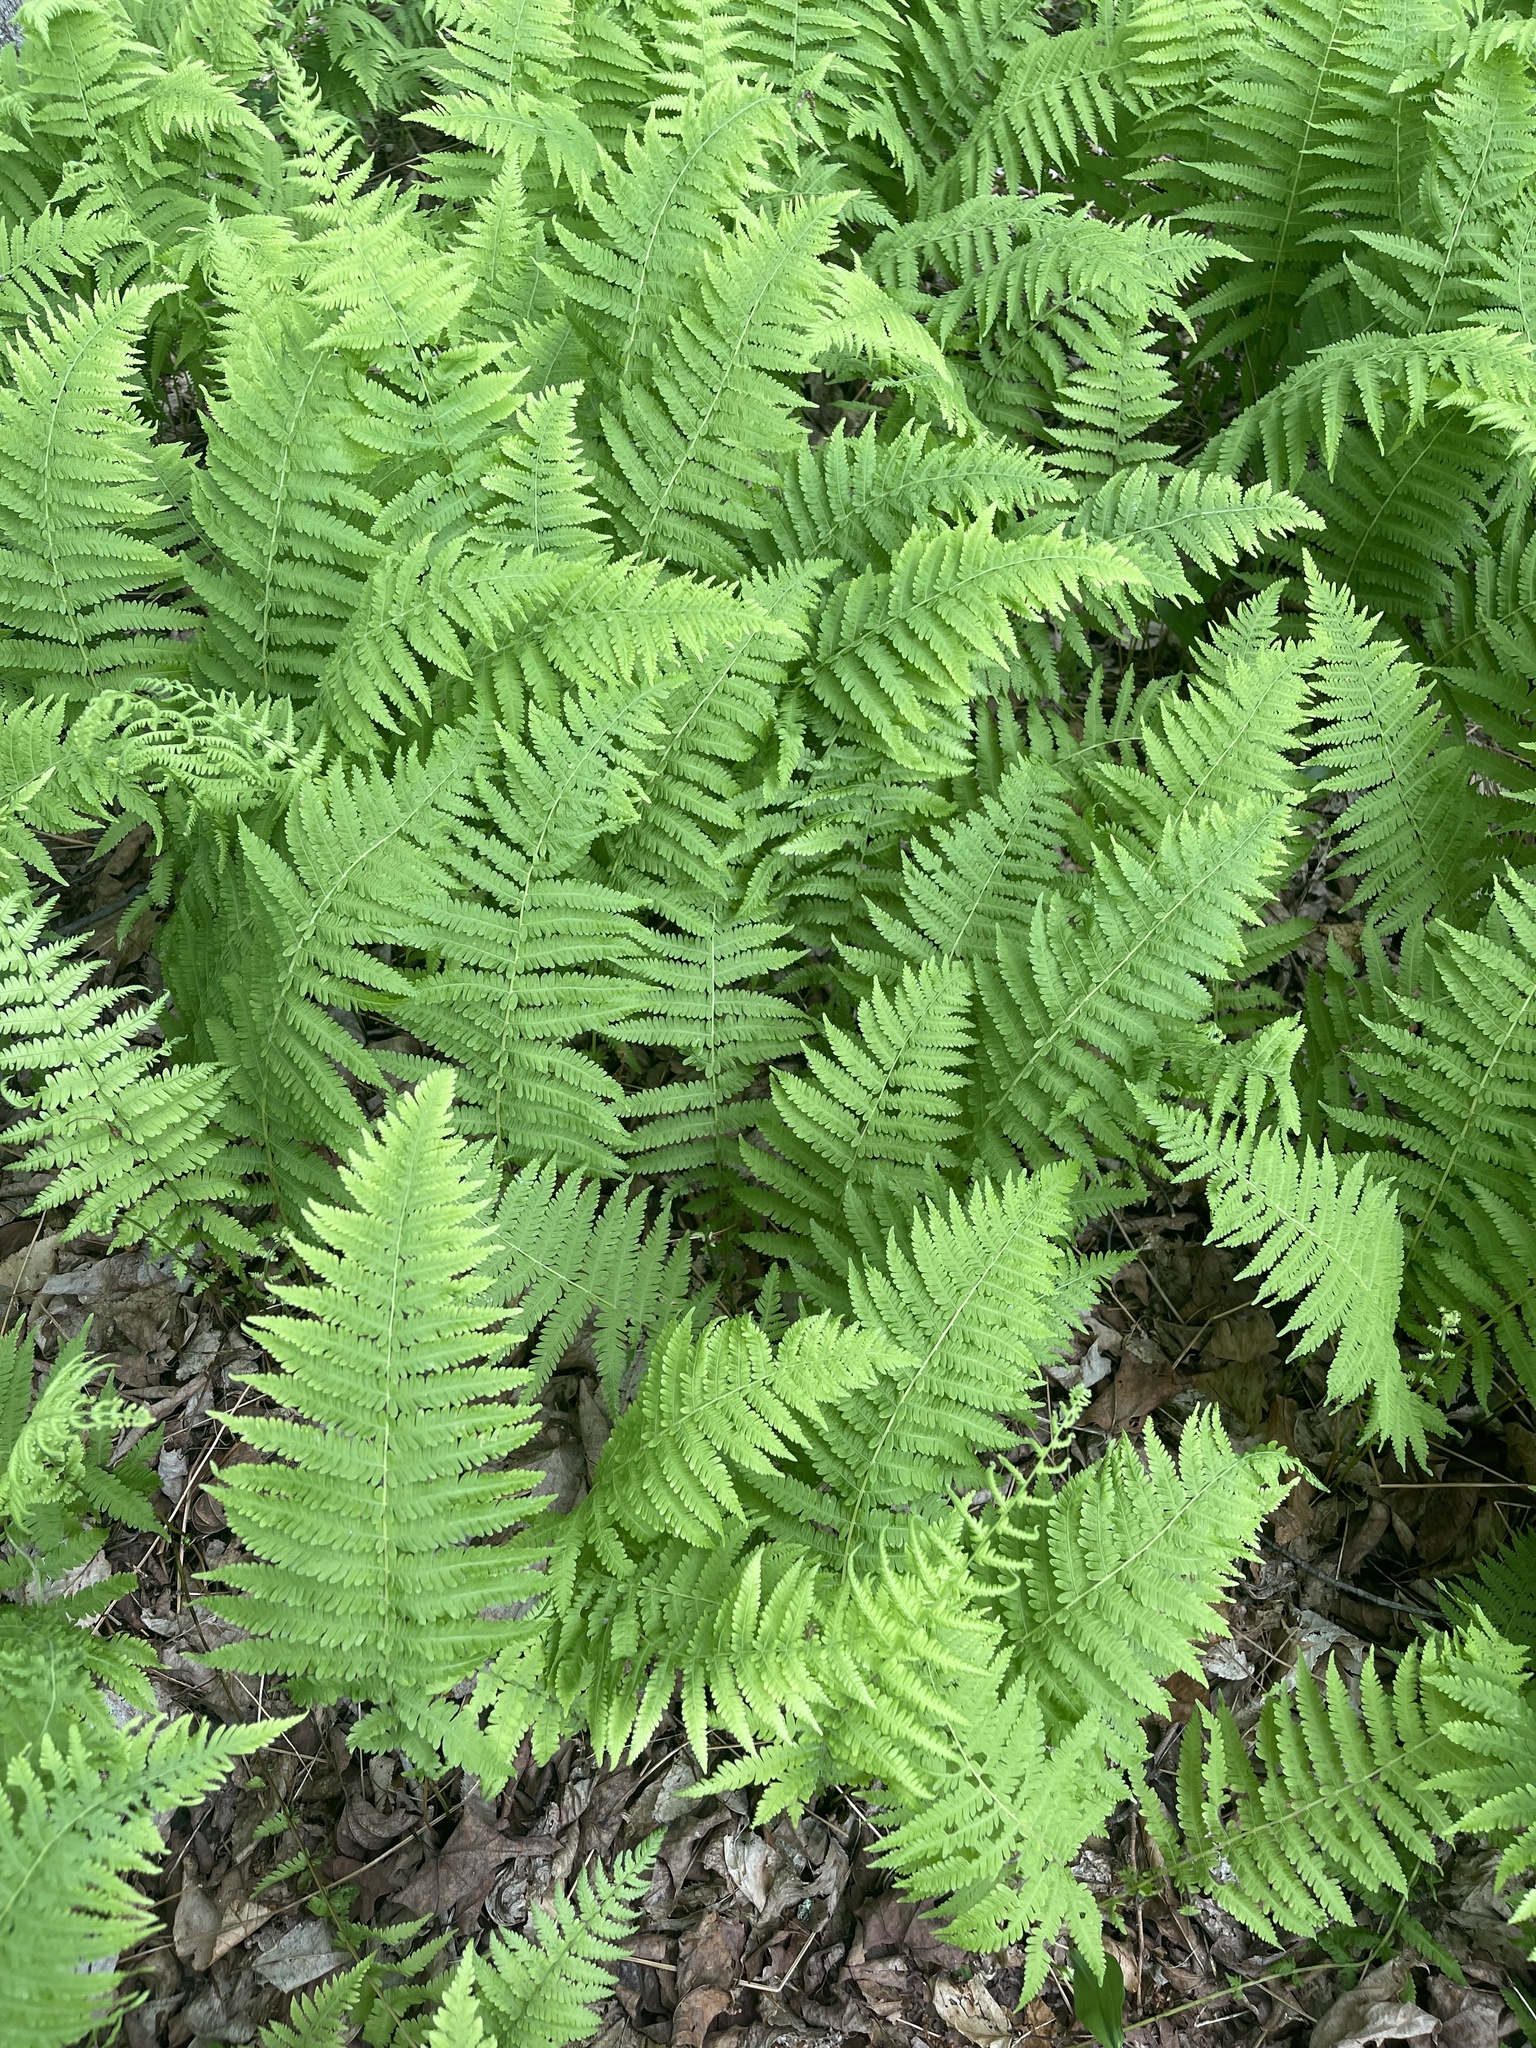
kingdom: Plantae
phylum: Tracheophyta
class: Polypodiopsida
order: Polypodiales
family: Thelypteridaceae
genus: Amauropelta
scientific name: Amauropelta noveboracensis
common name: New york fern
